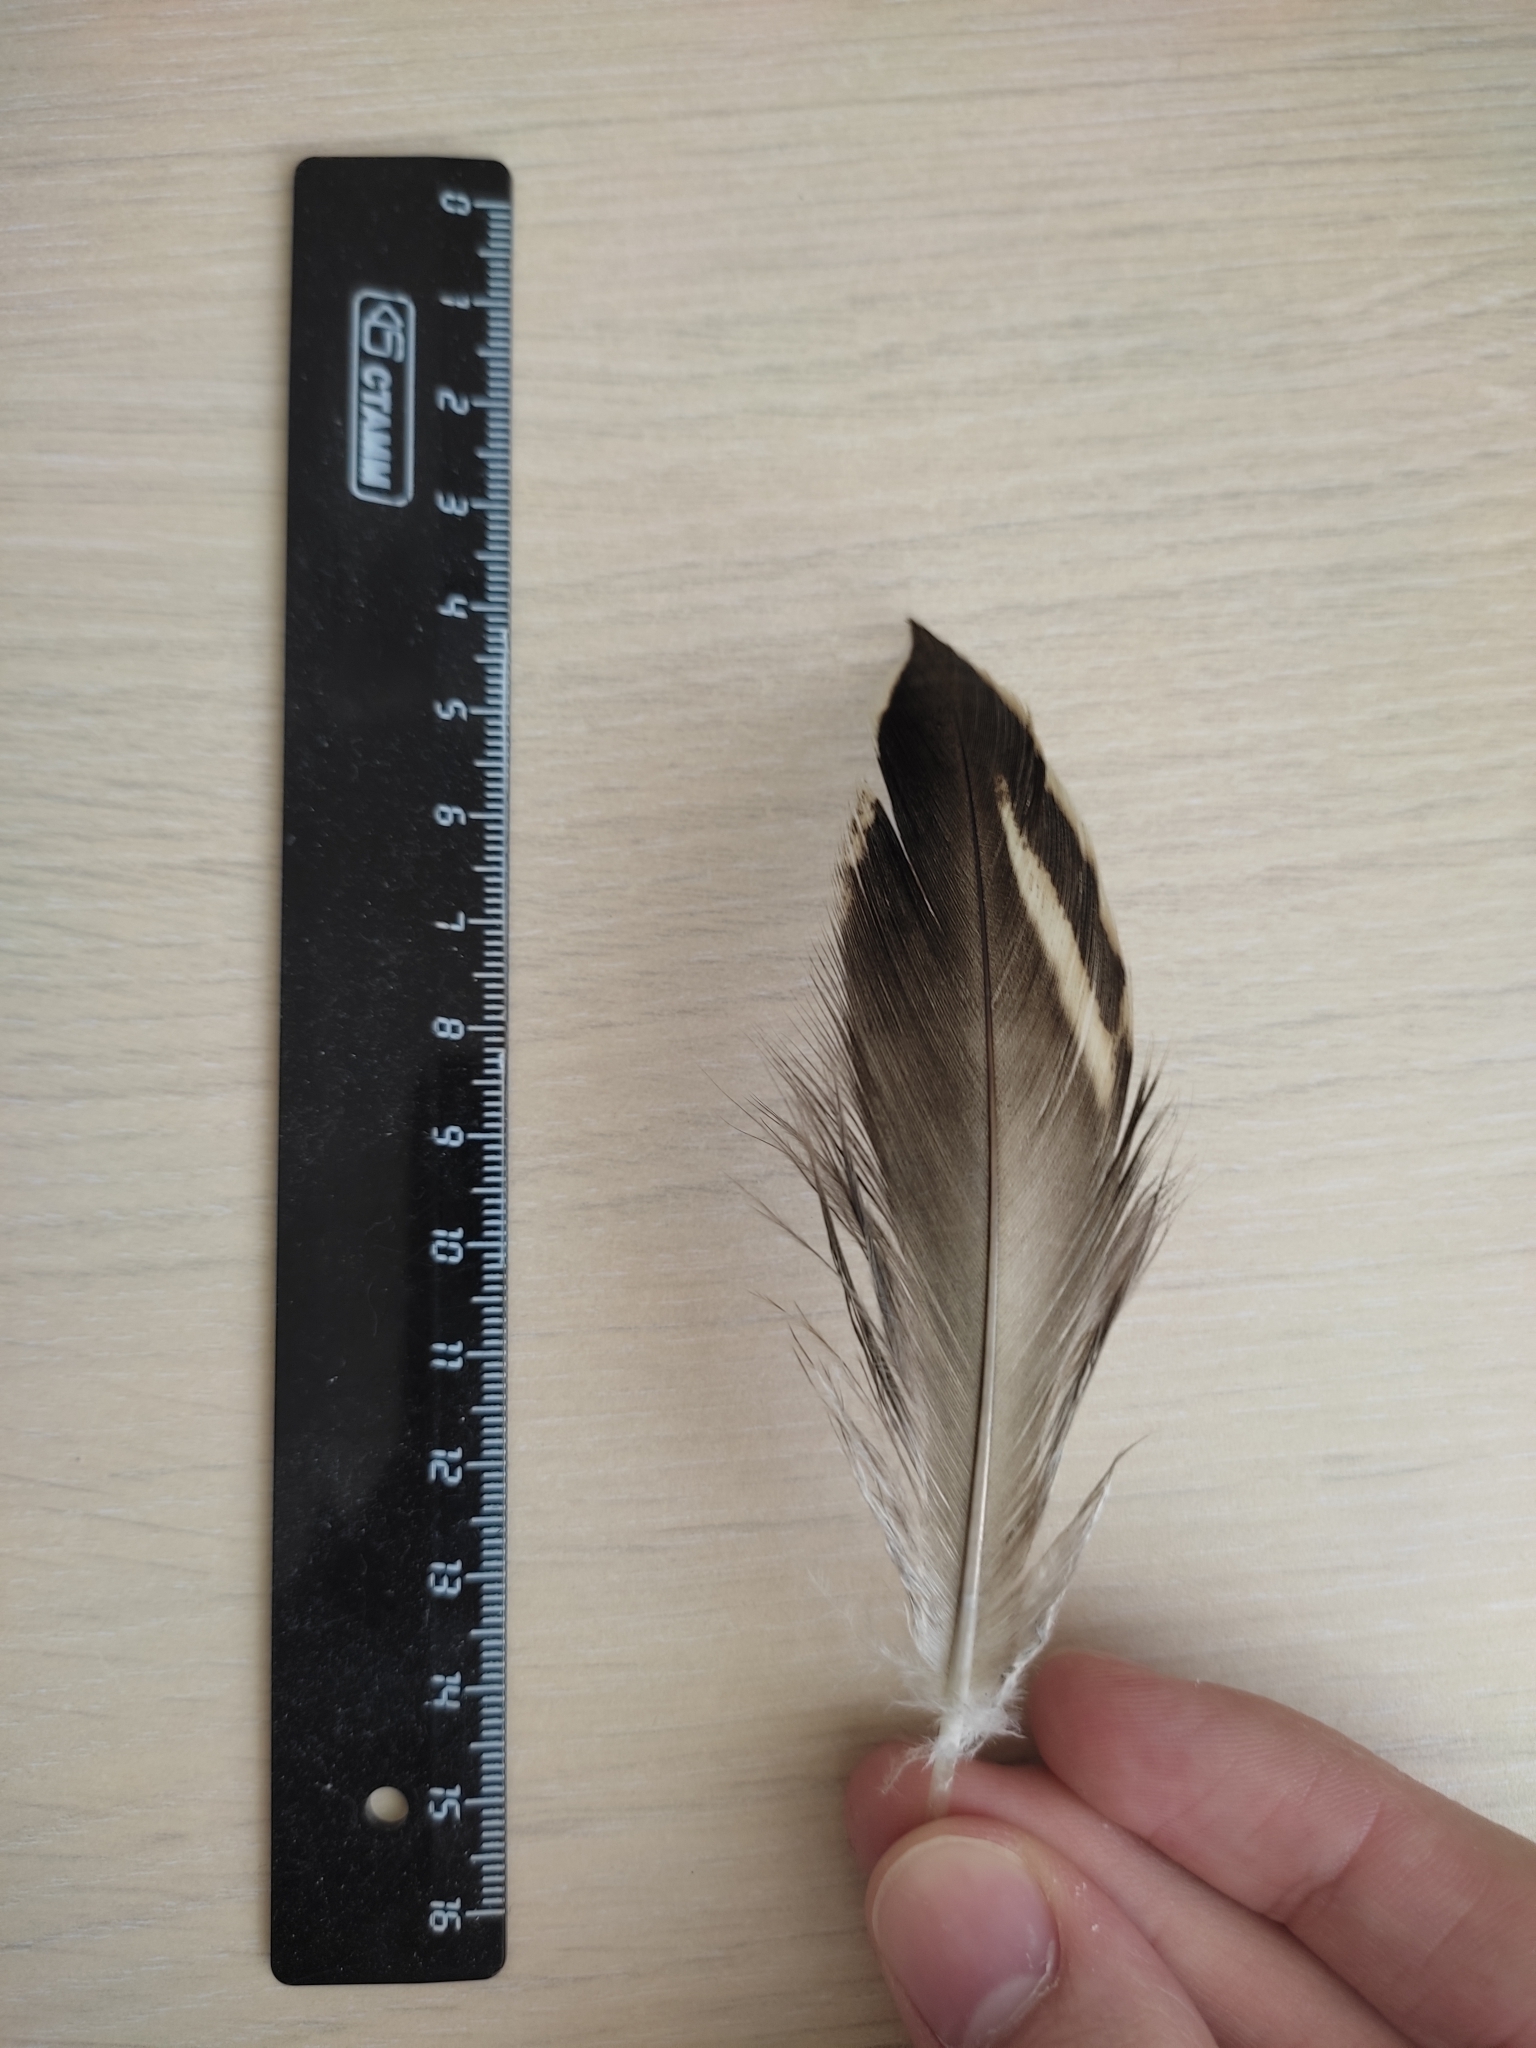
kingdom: Animalia
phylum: Chordata
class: Aves
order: Anseriformes
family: Anatidae
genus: Anas
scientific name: Anas platyrhynchos
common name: Mallard
